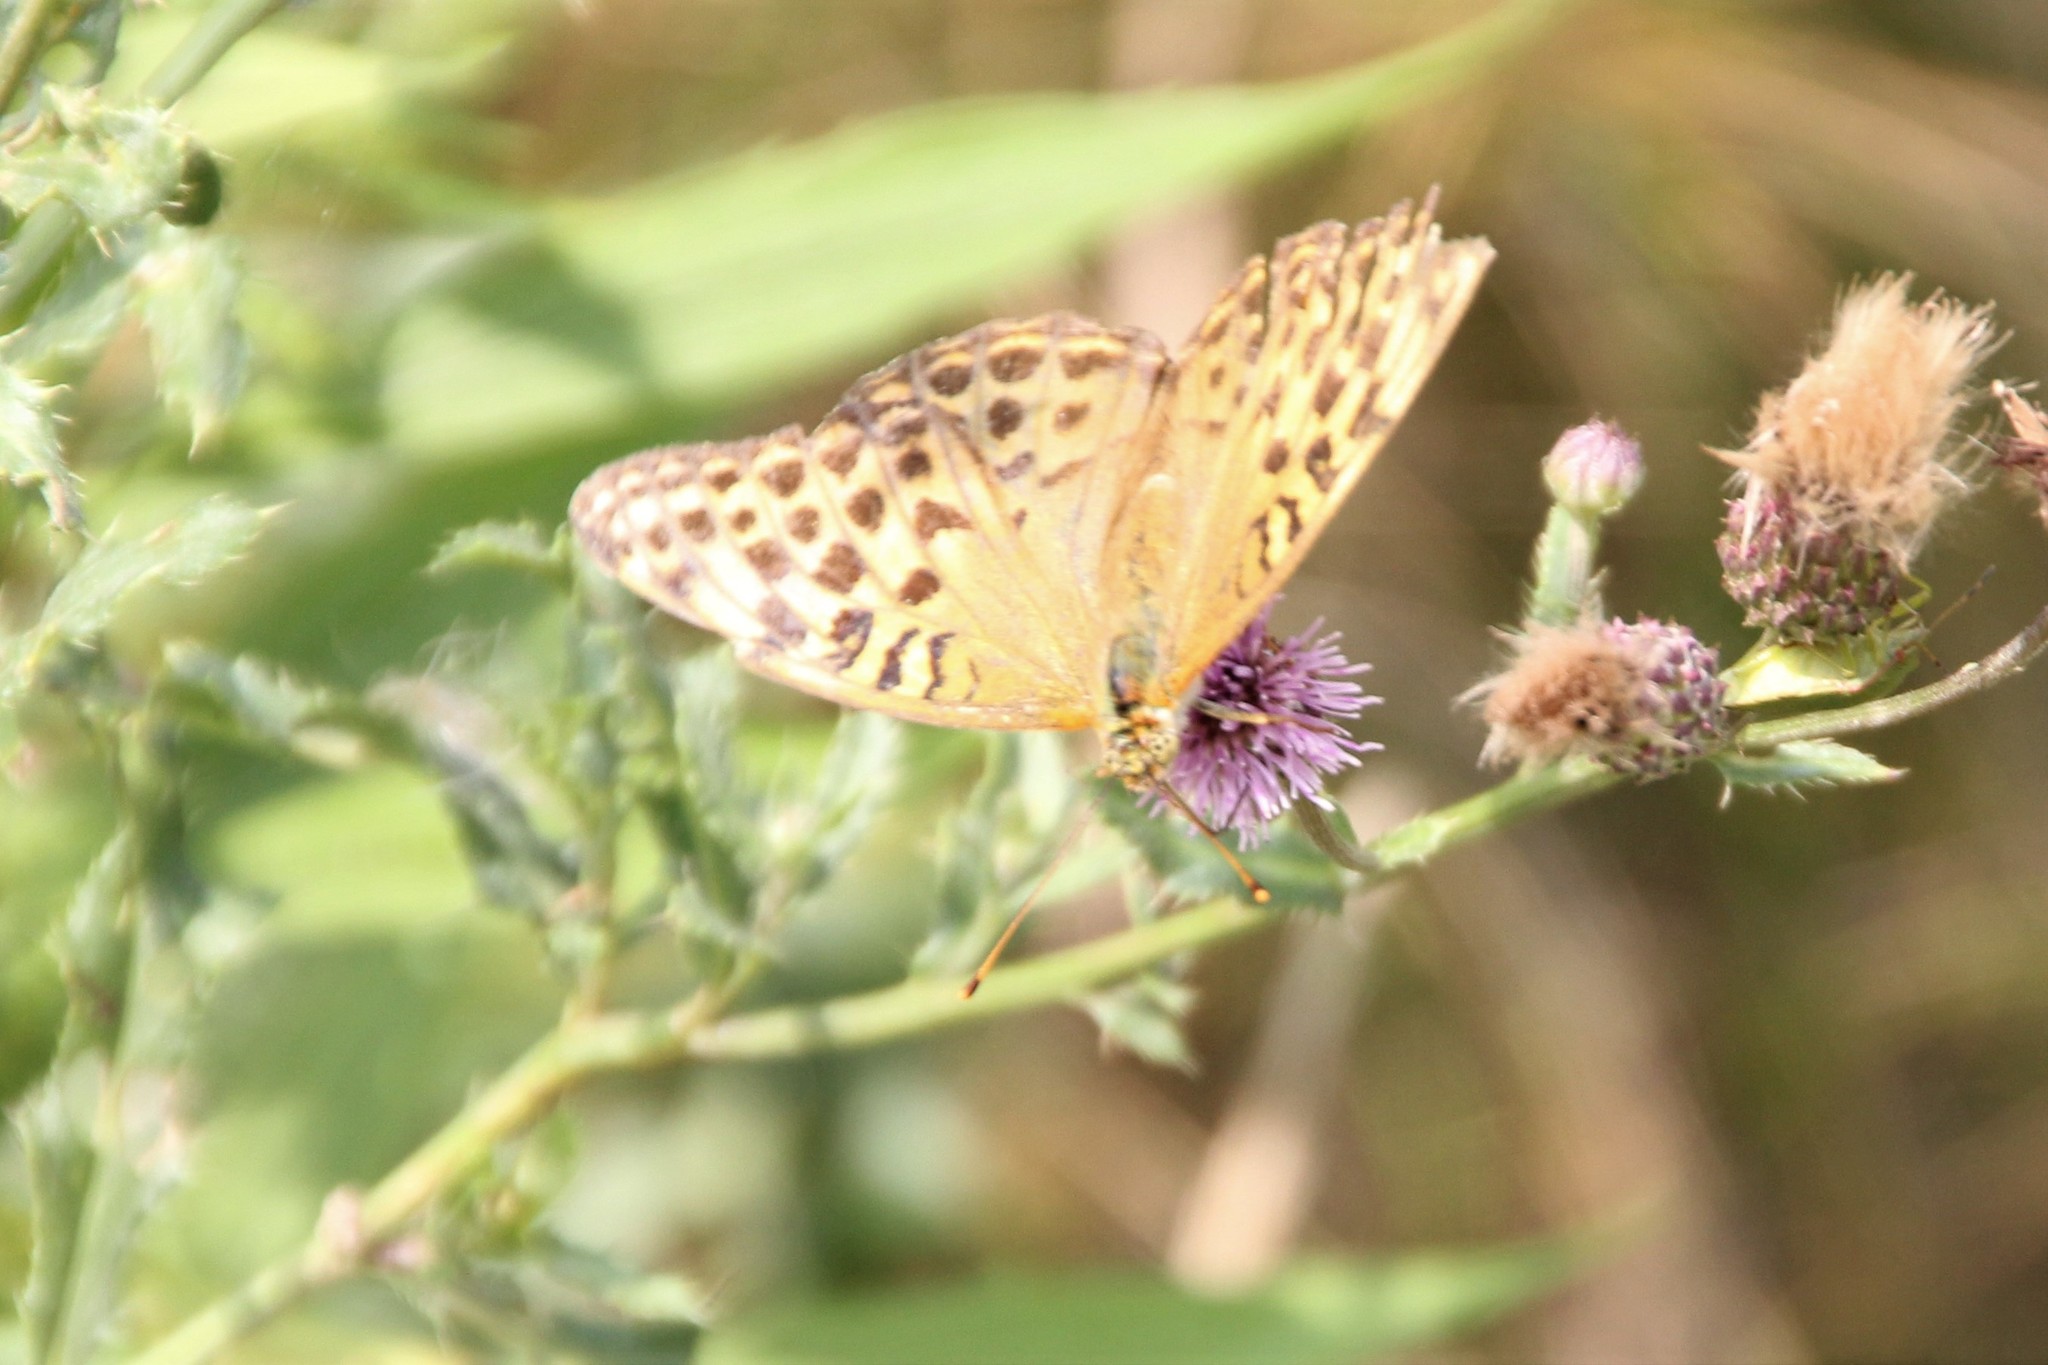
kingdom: Animalia
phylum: Arthropoda
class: Insecta
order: Lepidoptera
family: Nymphalidae
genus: Argynnis
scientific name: Argynnis paphia
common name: Silver-washed fritillary
